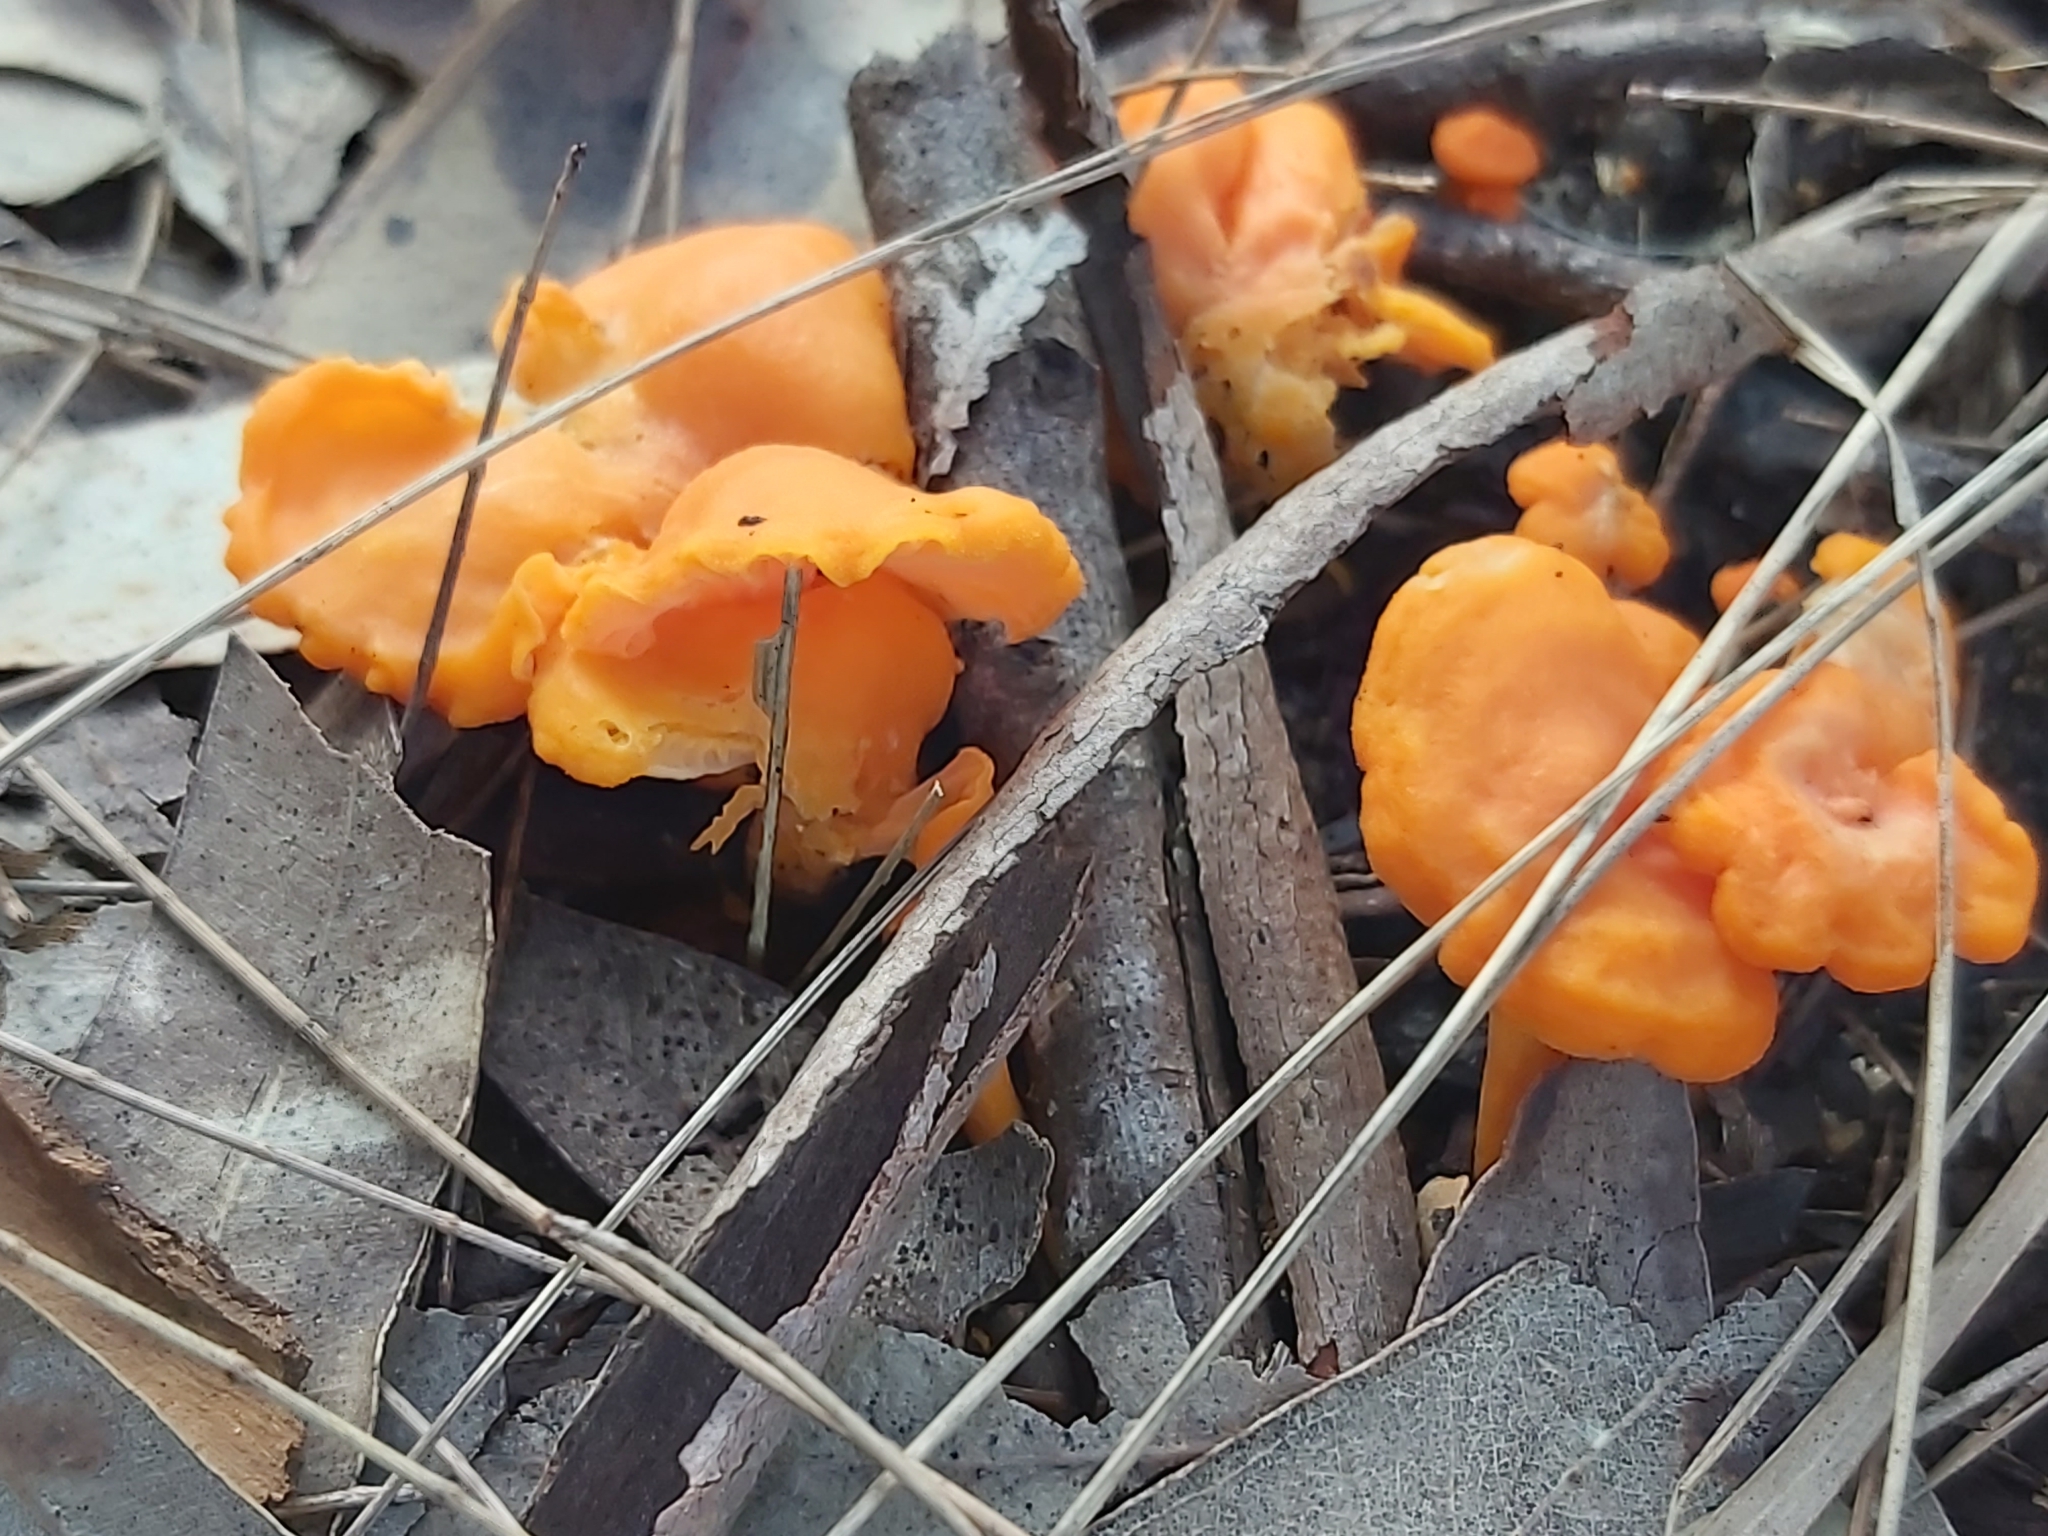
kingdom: Fungi
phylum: Basidiomycota
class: Agaricomycetes
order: Cantharellales
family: Hydnaceae
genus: Cantharellus
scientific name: Cantharellus
